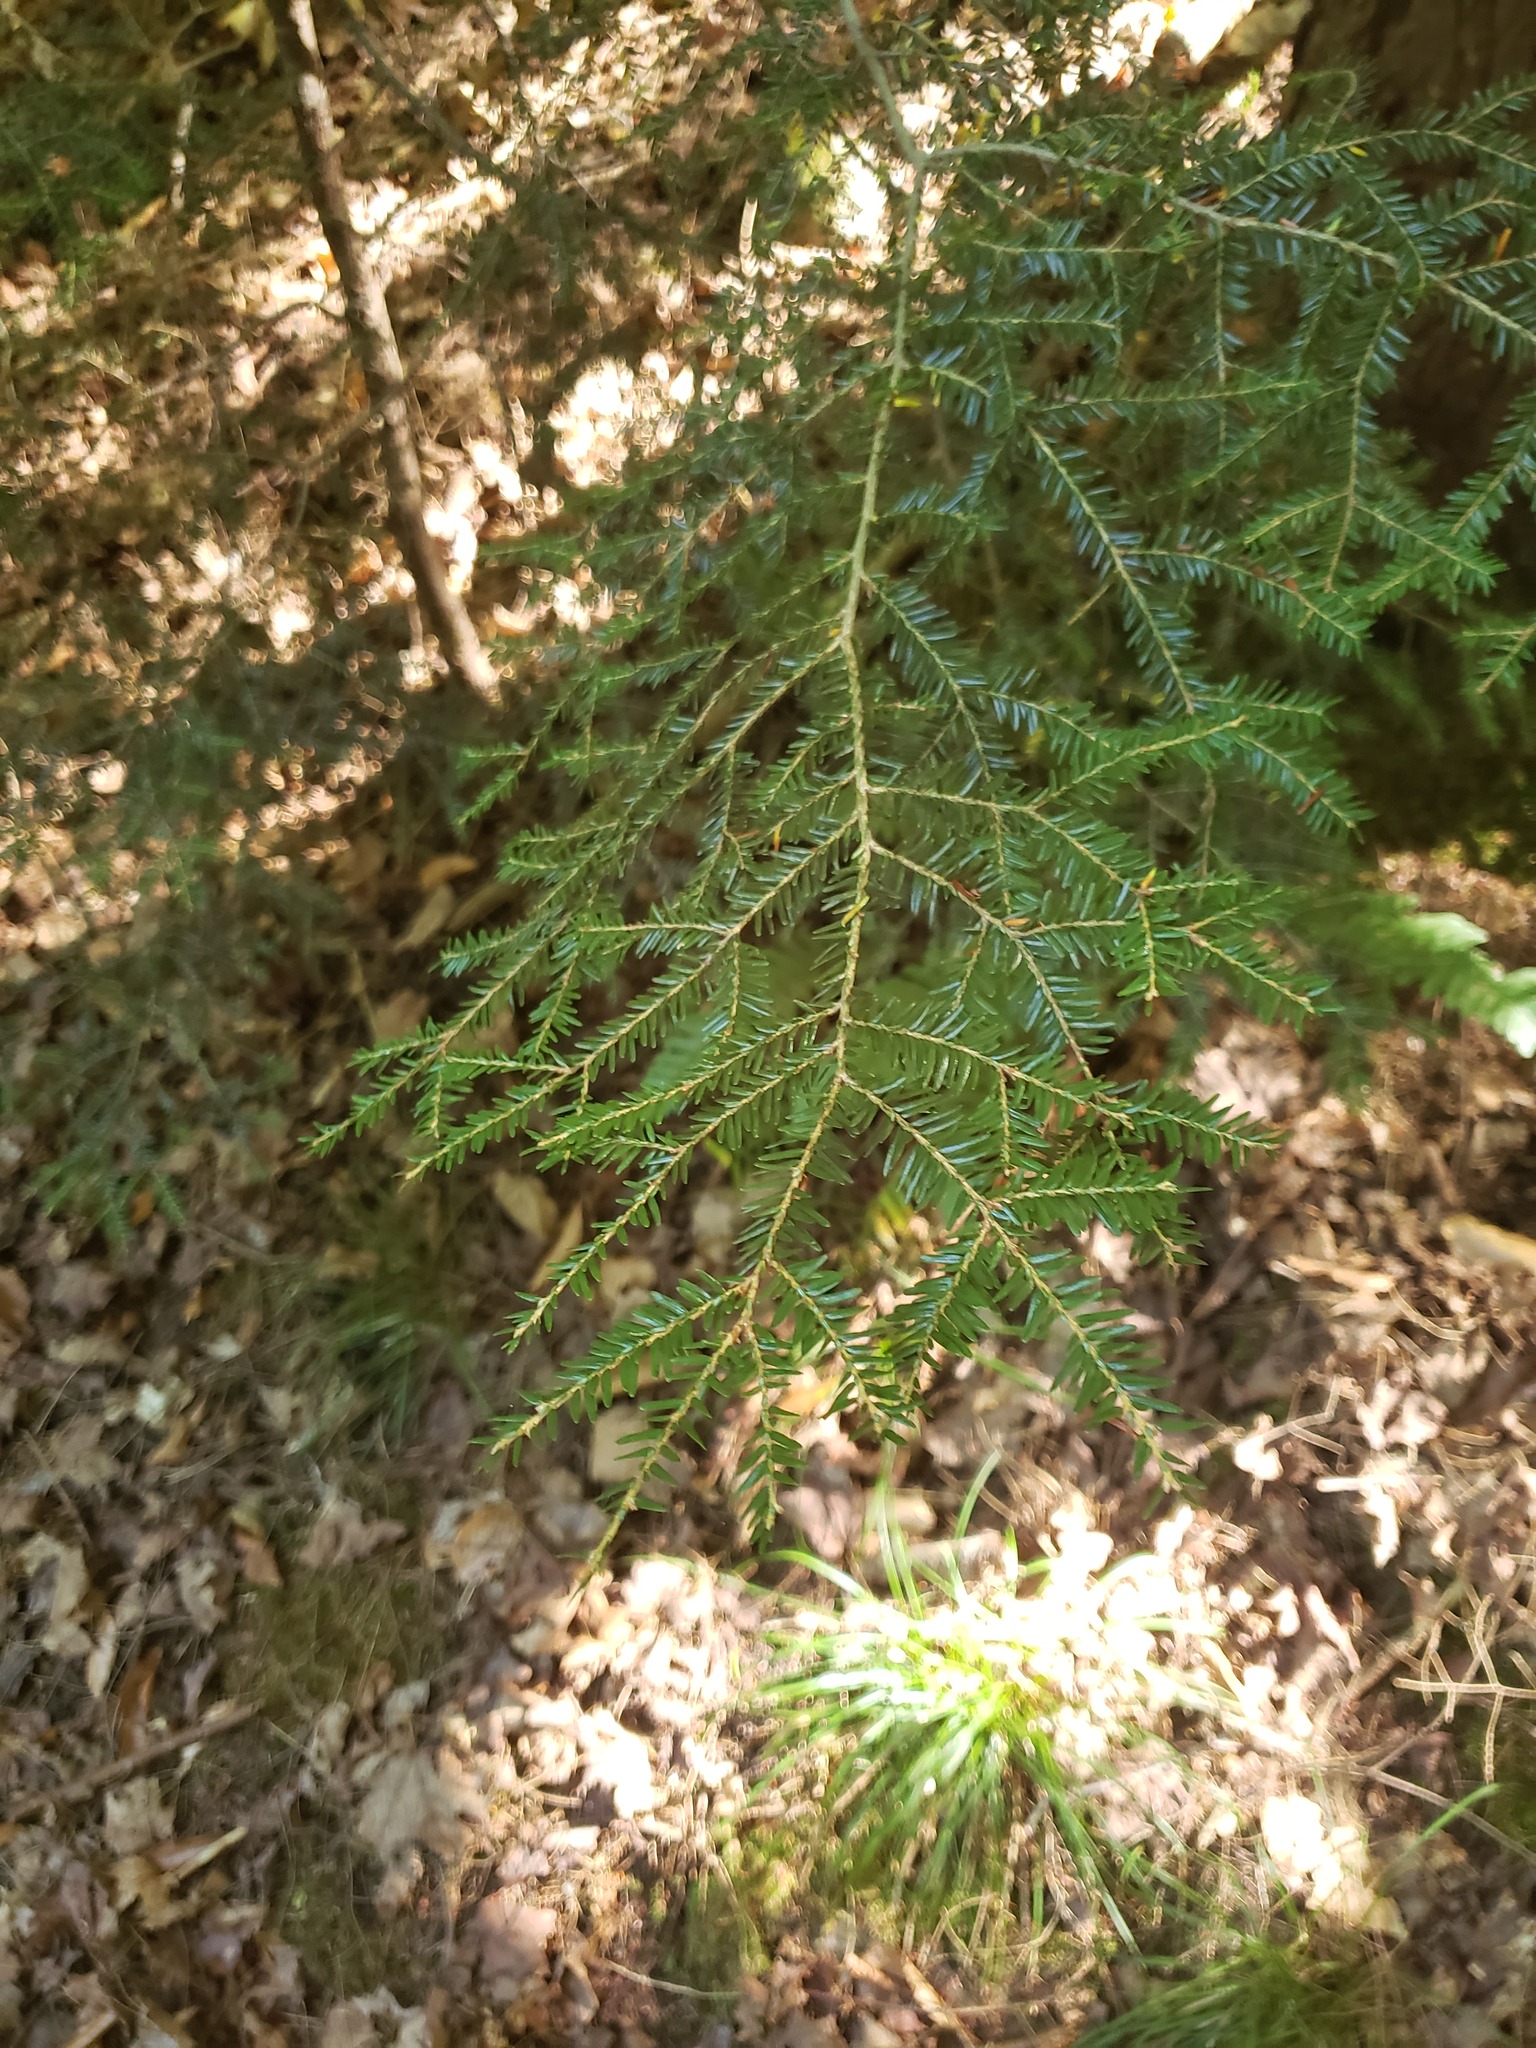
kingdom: Plantae
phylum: Tracheophyta
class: Pinopsida
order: Pinales
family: Pinaceae
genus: Tsuga
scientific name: Tsuga canadensis
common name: Eastern hemlock
